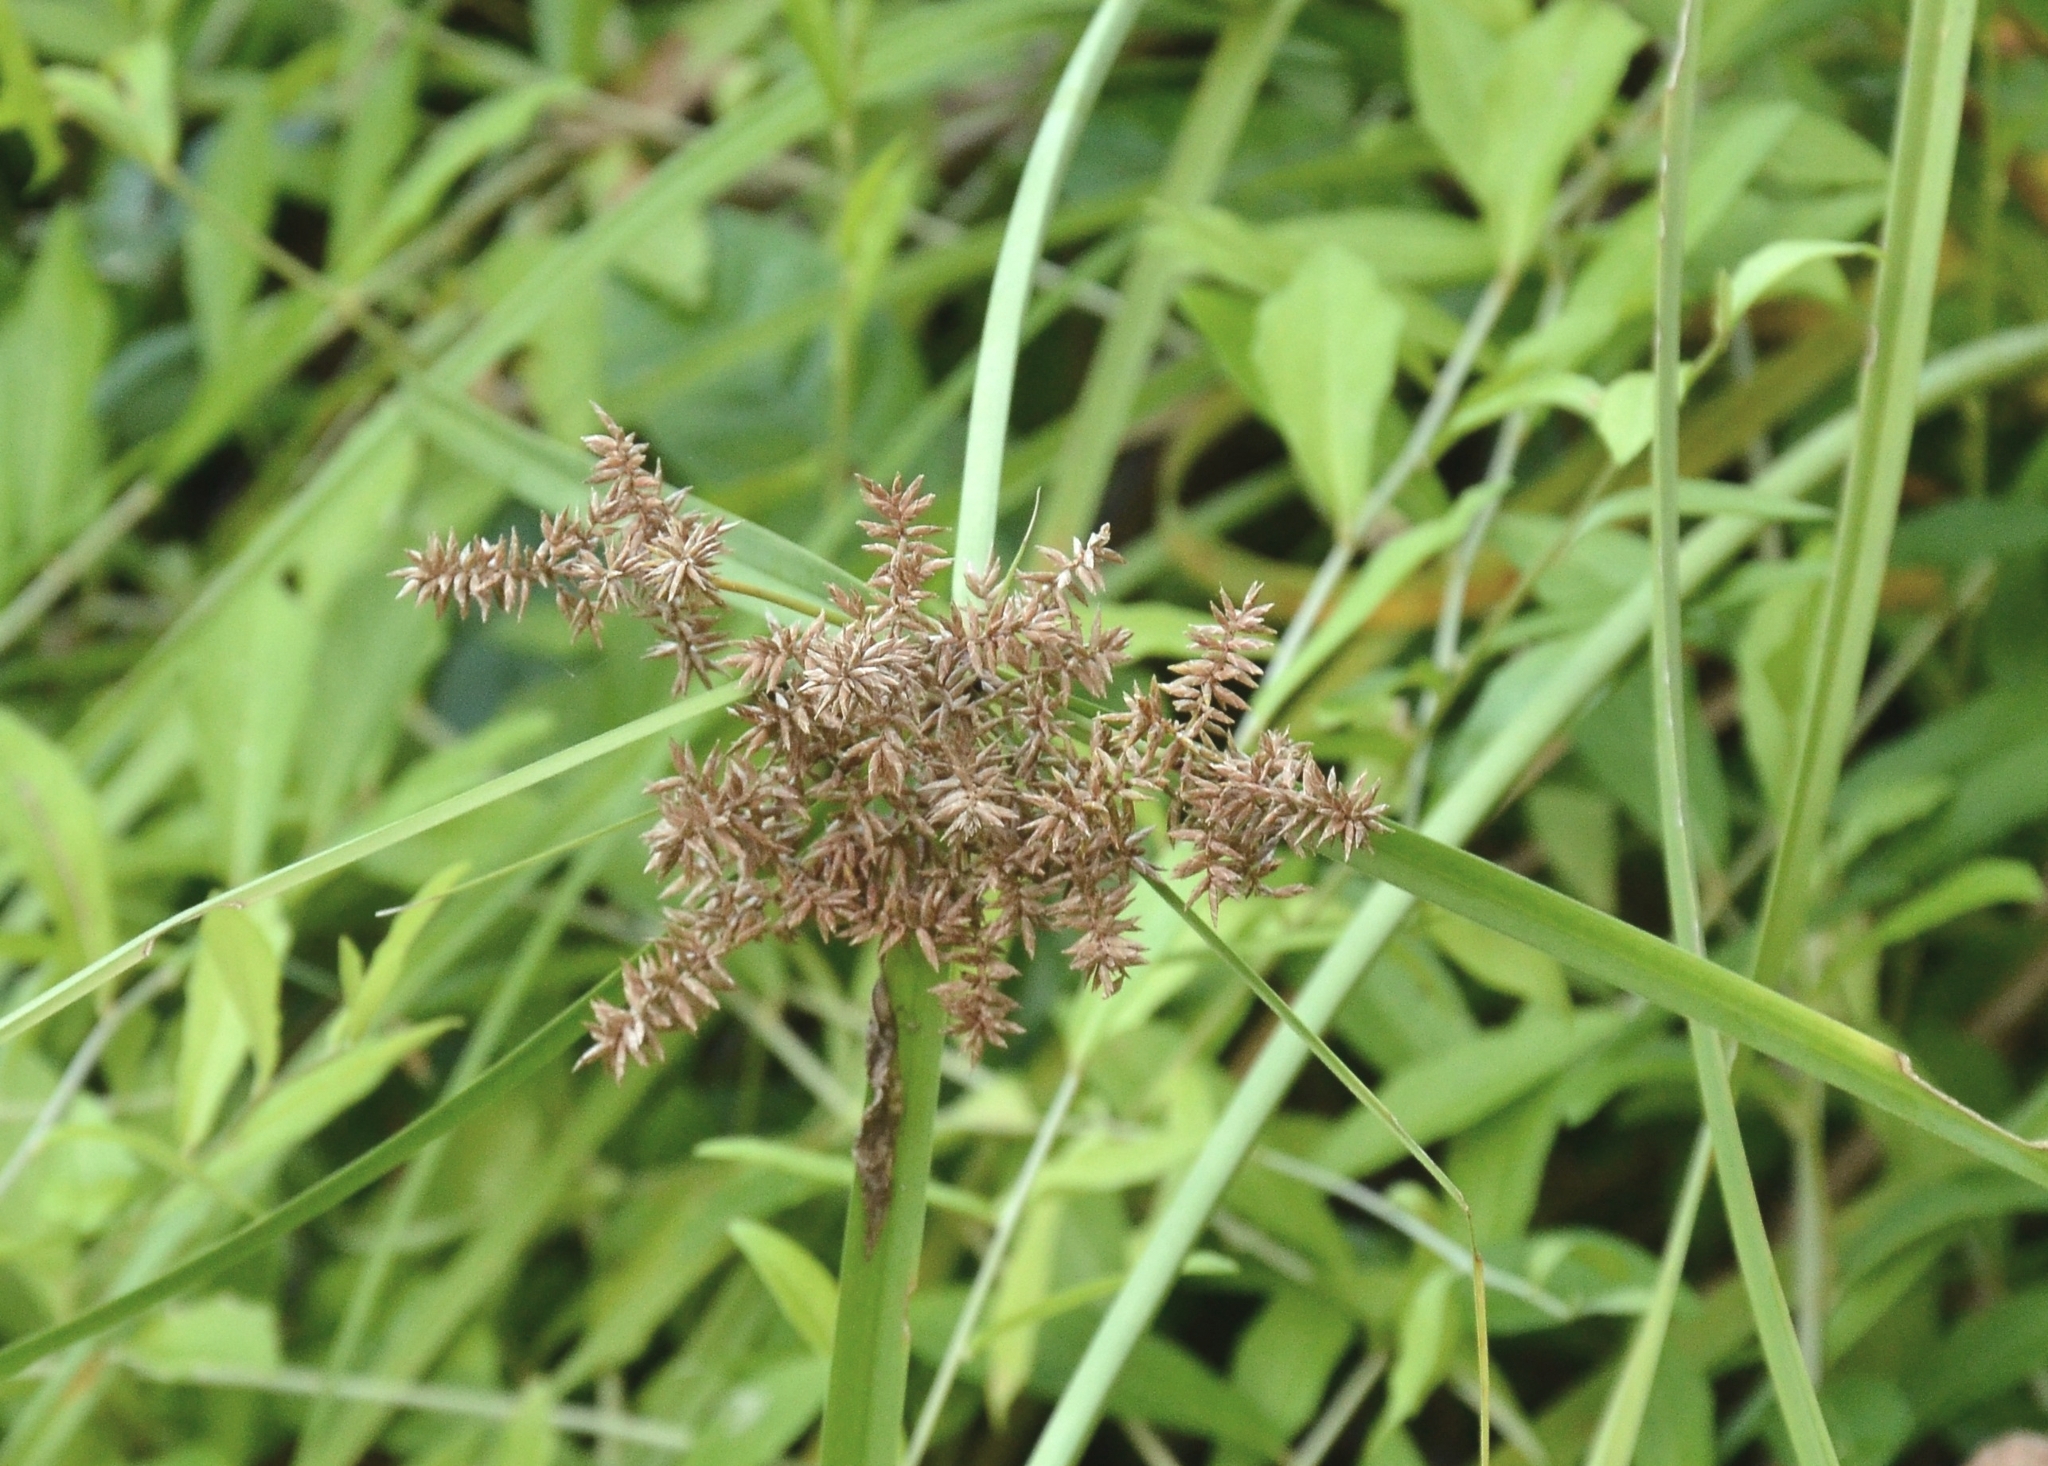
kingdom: Plantae
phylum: Tracheophyta
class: Liliopsida
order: Poales
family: Cyperaceae
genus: Cyperus
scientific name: Cyperus javanicus
